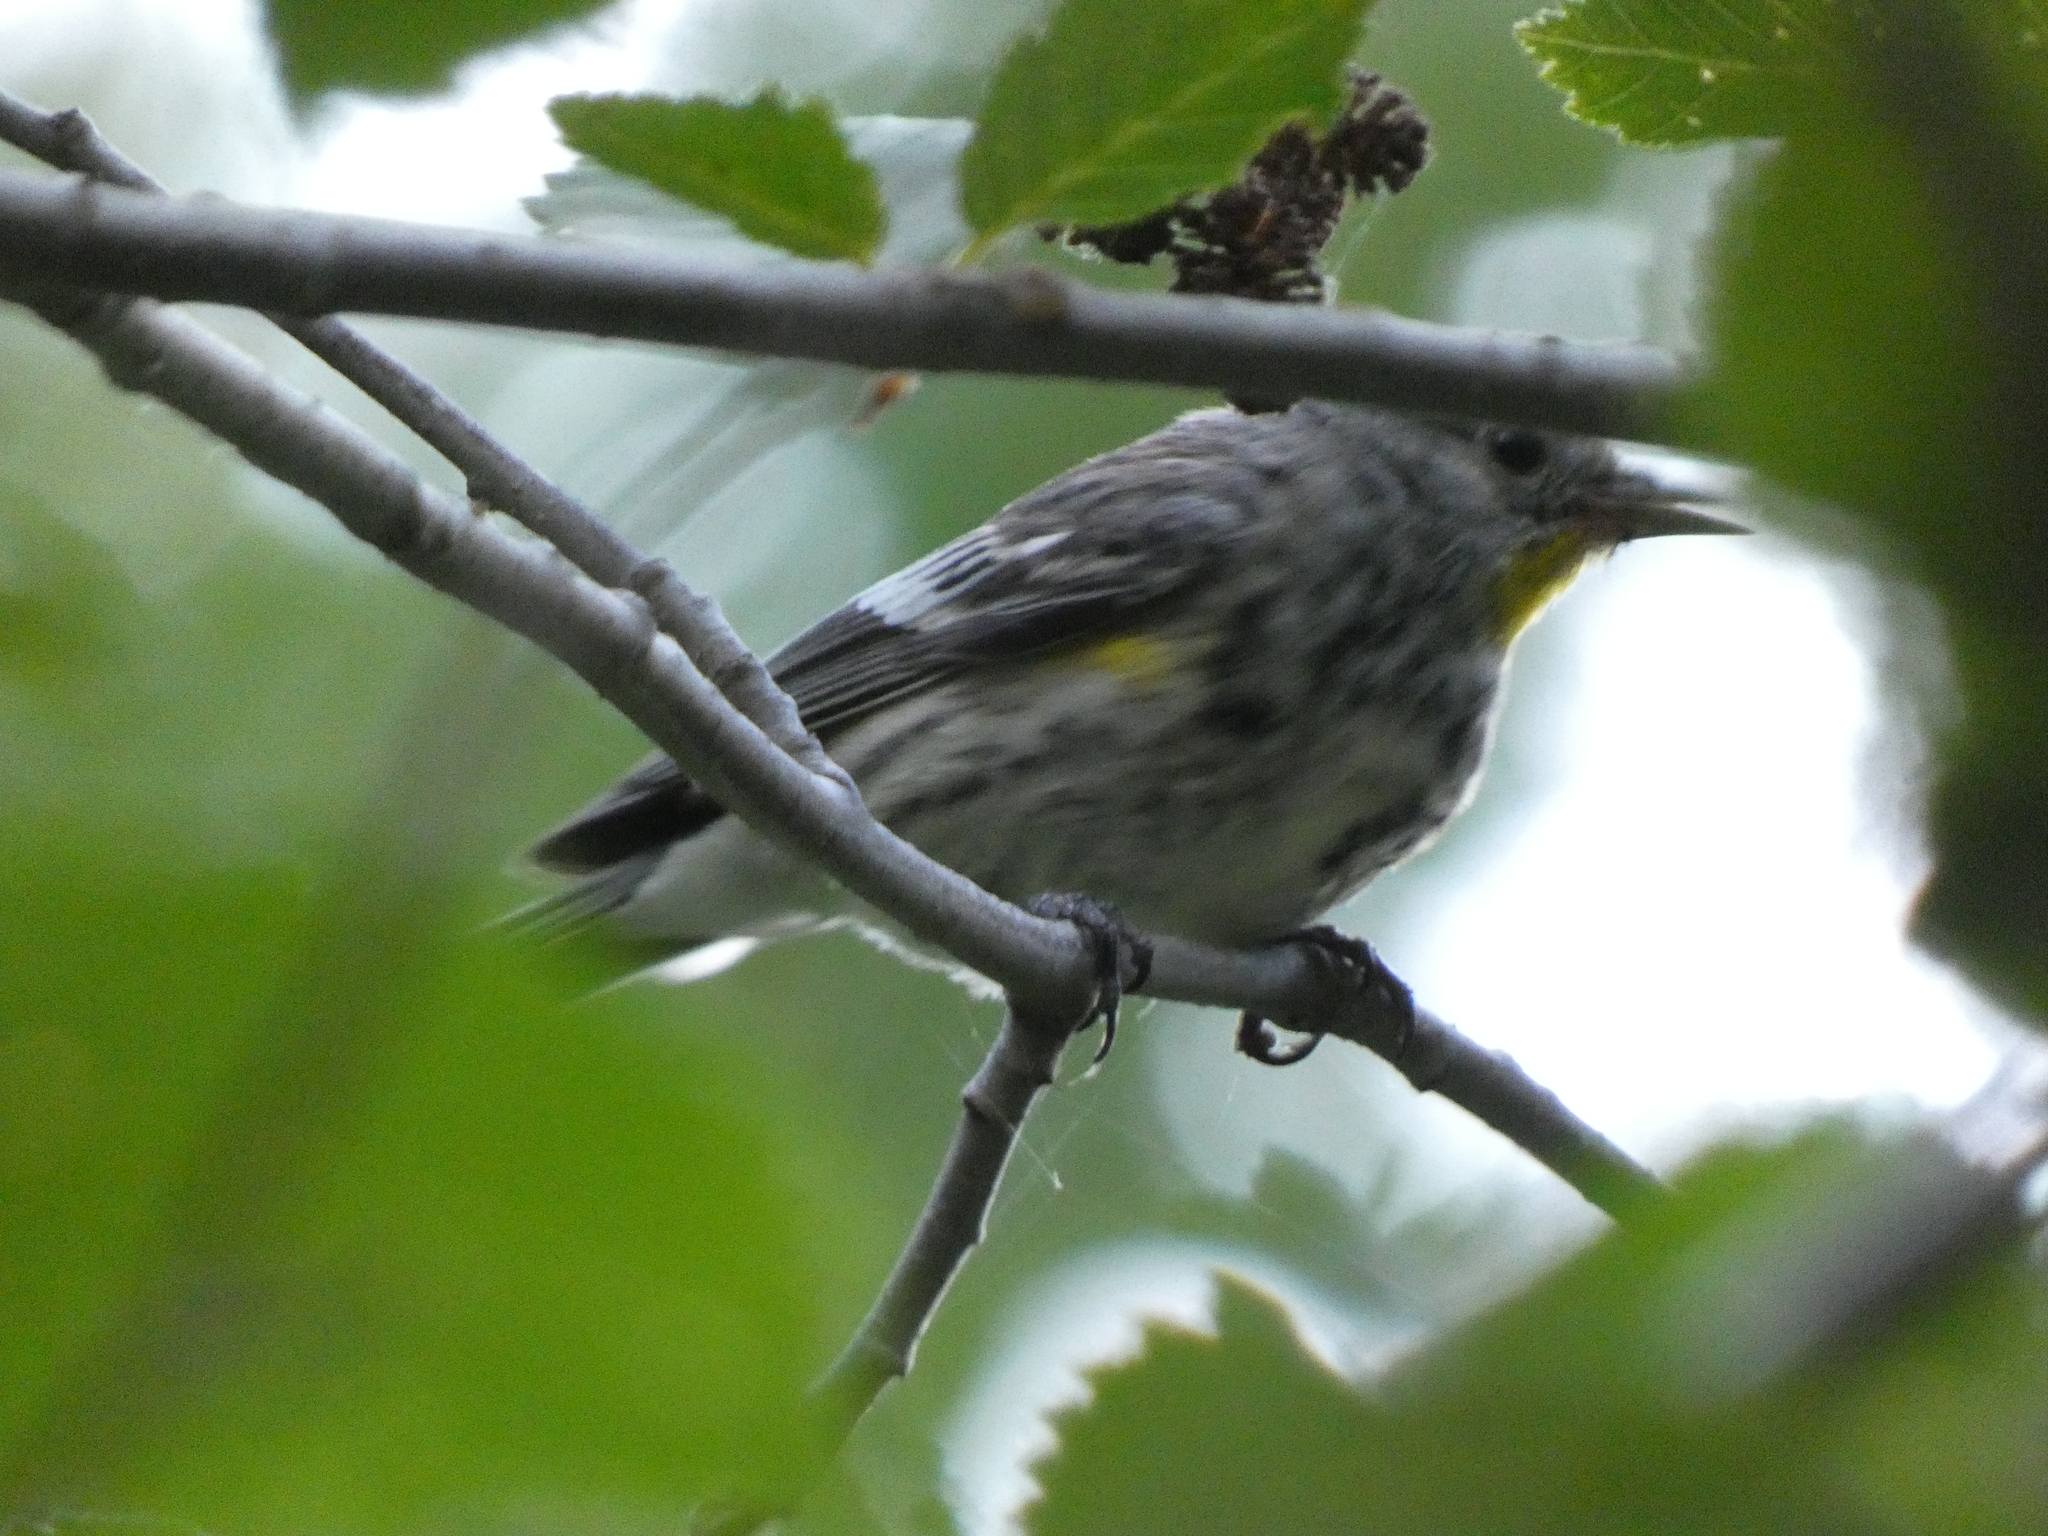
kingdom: Animalia
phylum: Chordata
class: Aves
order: Passeriformes
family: Parulidae
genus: Setophaga
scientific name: Setophaga coronata
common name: Myrtle warbler
